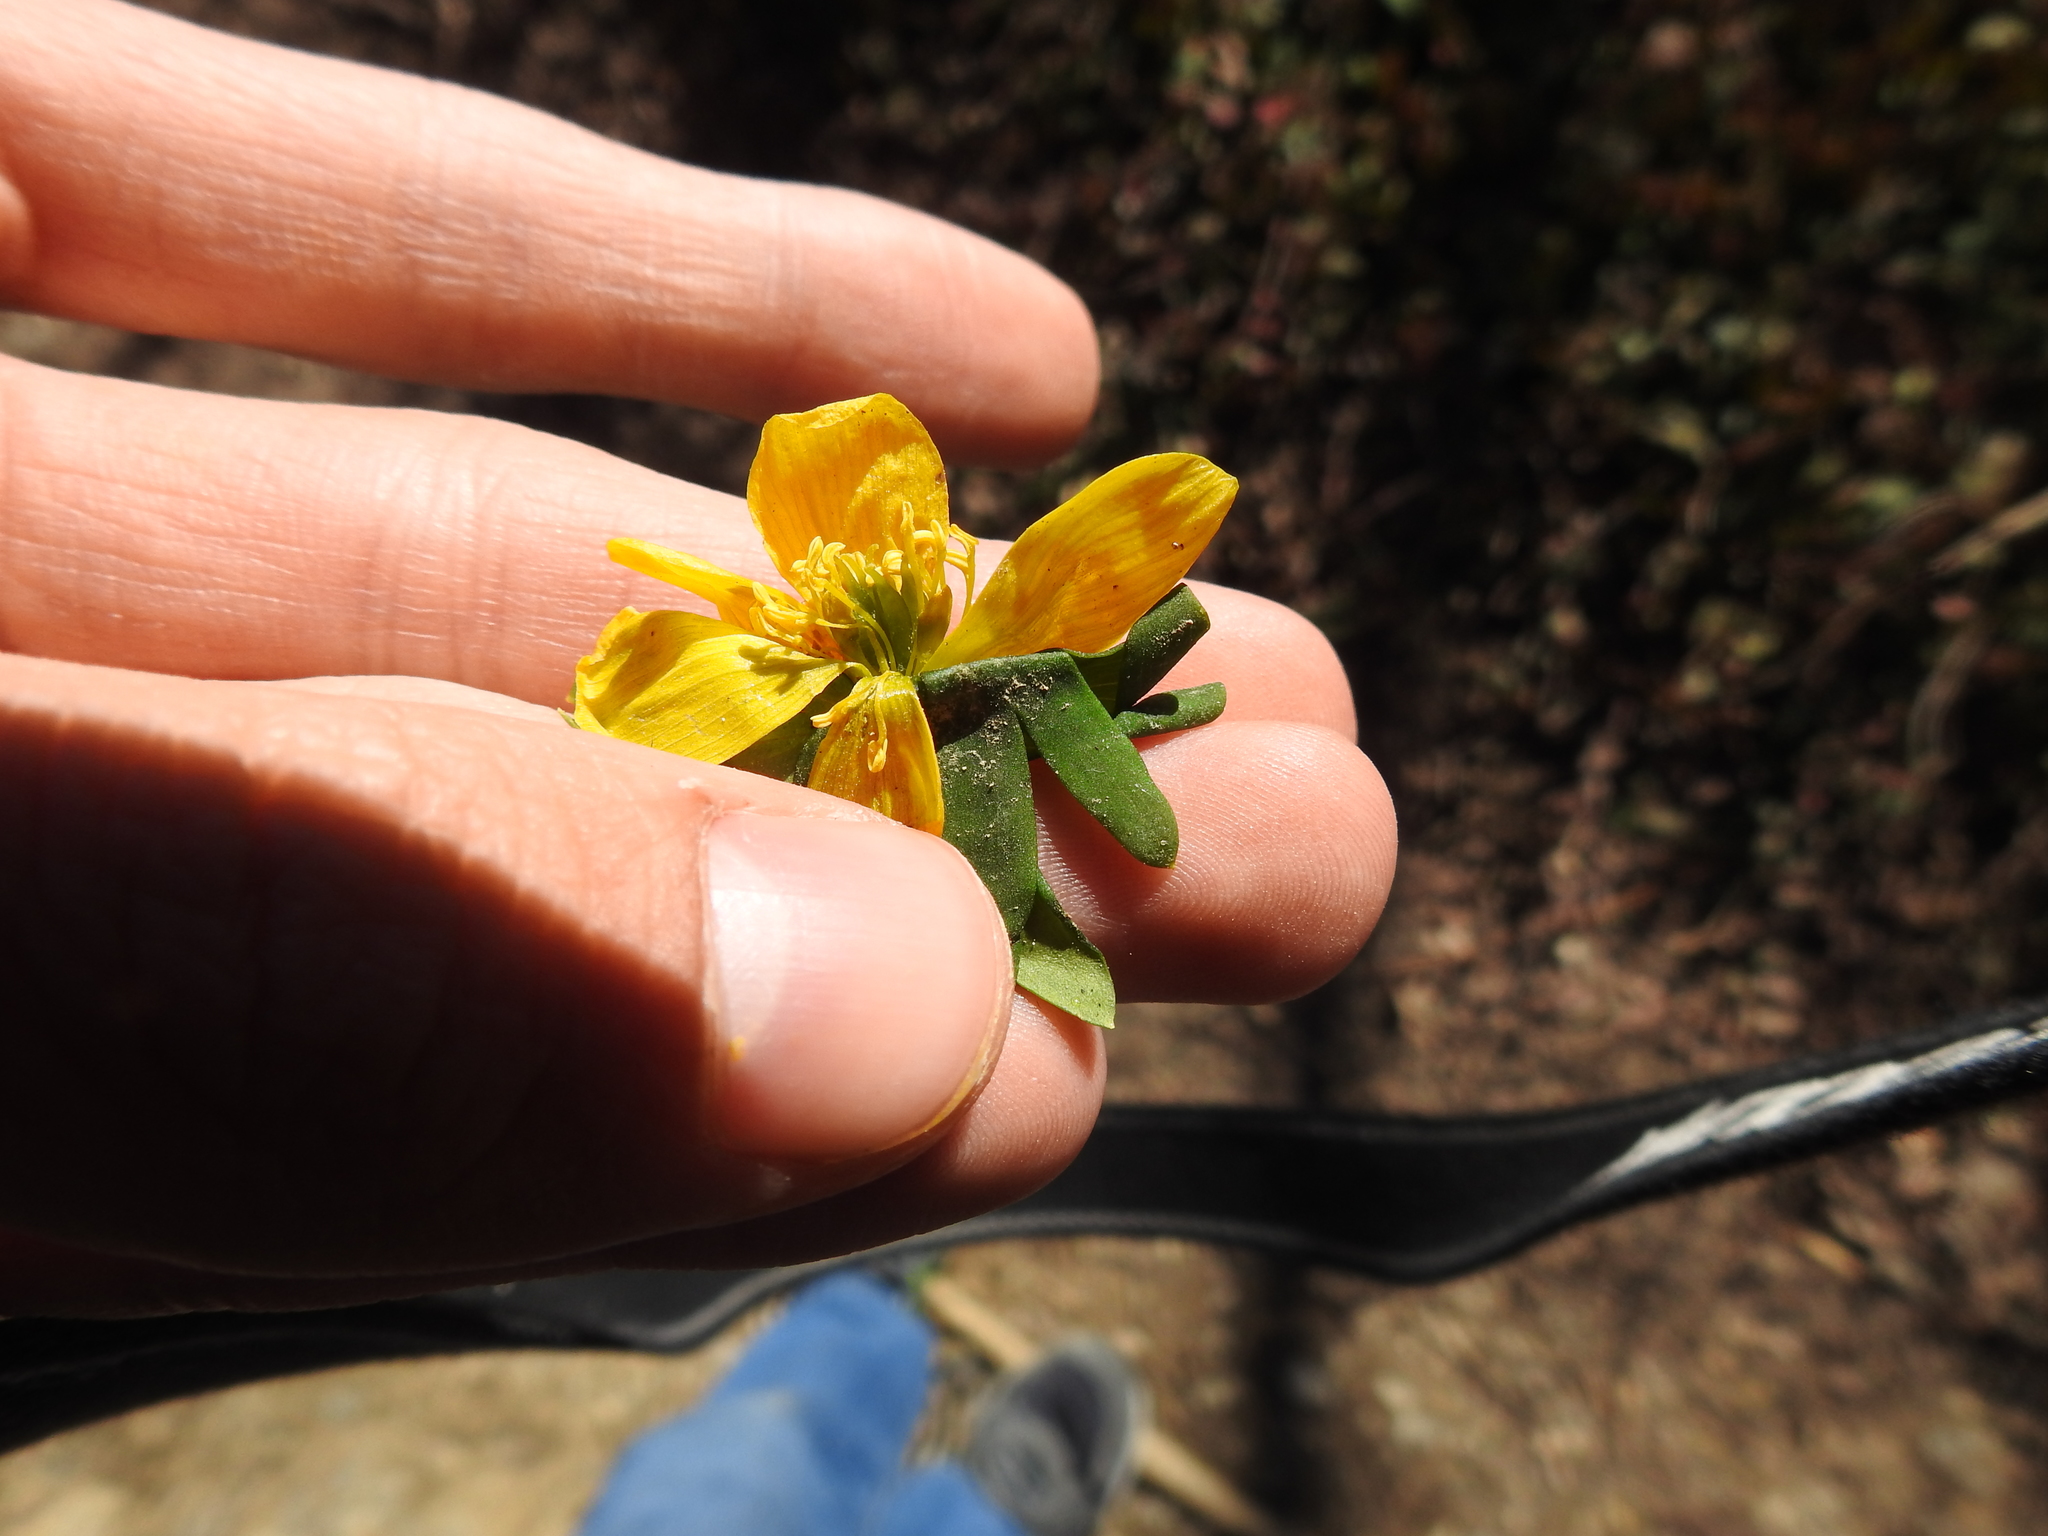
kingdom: Plantae
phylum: Tracheophyta
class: Magnoliopsida
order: Ranunculales
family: Ranunculaceae
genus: Eranthis
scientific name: Eranthis hyemalis
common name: Winter aconite
